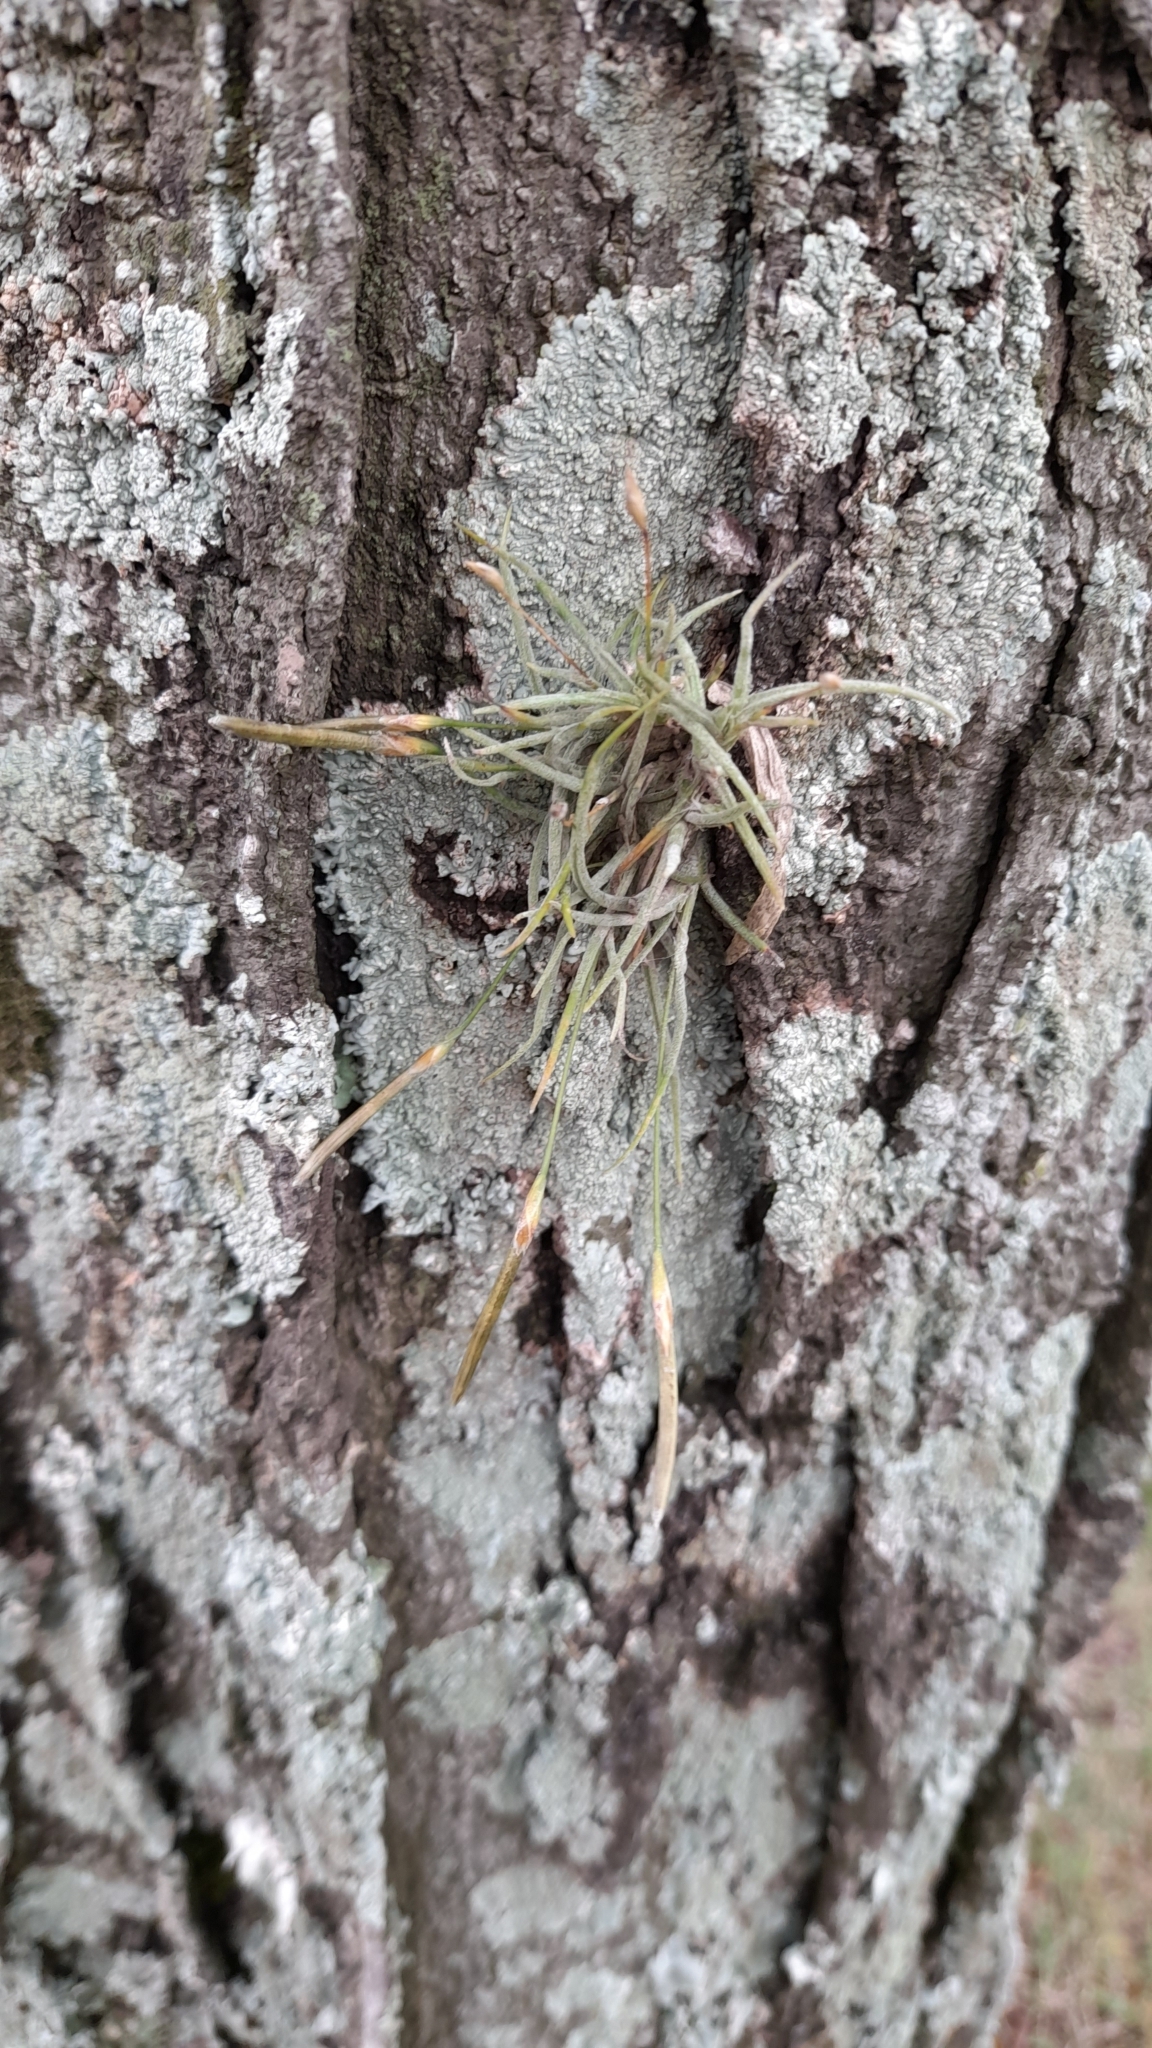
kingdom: Plantae
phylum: Tracheophyta
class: Liliopsida
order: Poales
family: Bromeliaceae
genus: Tillandsia
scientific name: Tillandsia recurvata
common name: Small ballmoss
